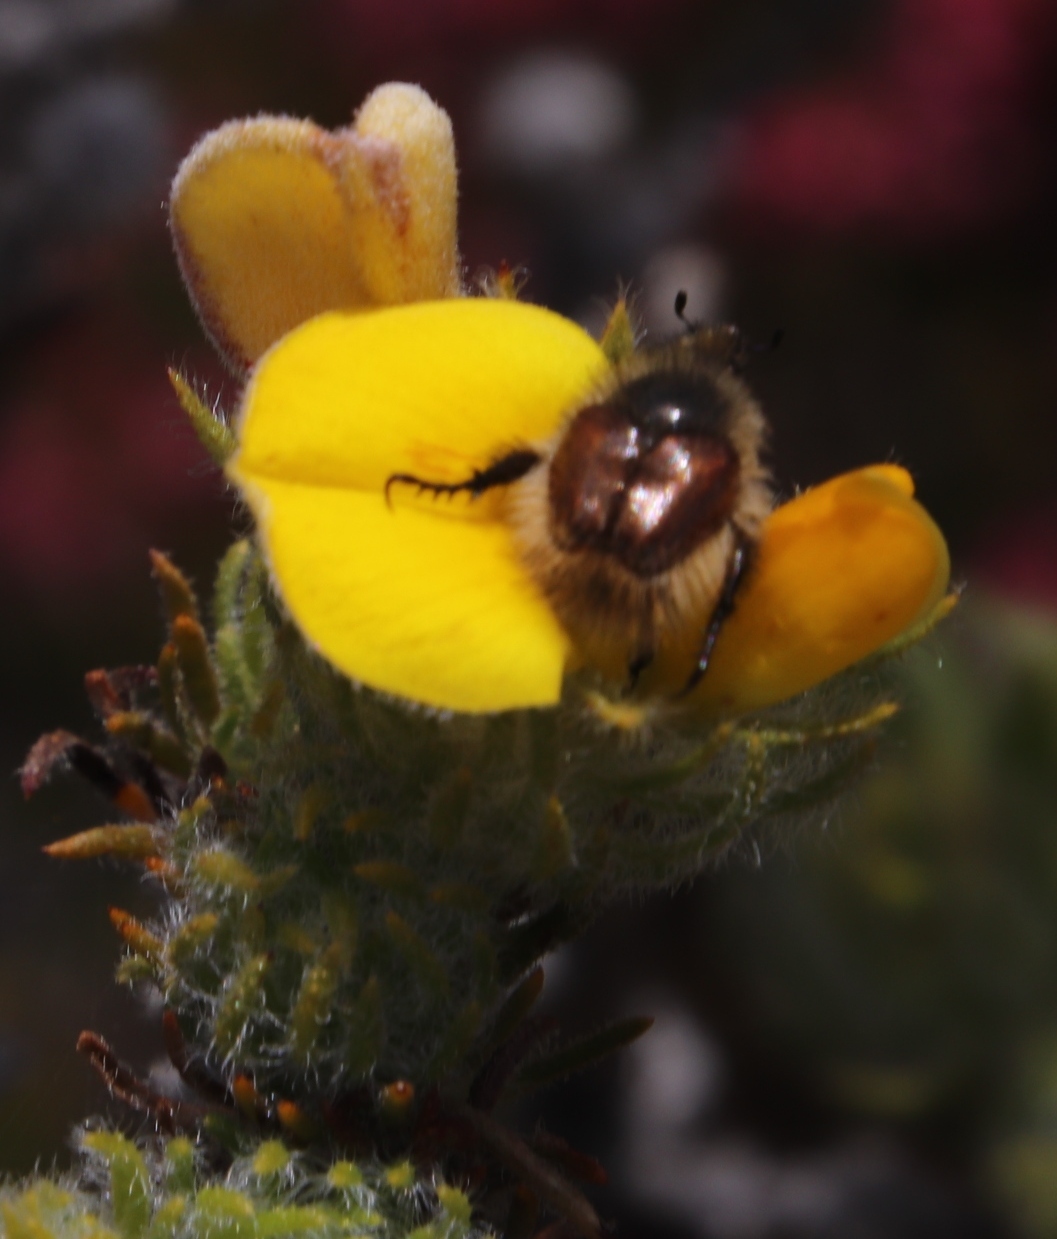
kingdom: Plantae
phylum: Tracheophyta
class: Magnoliopsida
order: Fabales
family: Fabaceae
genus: Aspalathus
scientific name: Aspalathus ciliaris
